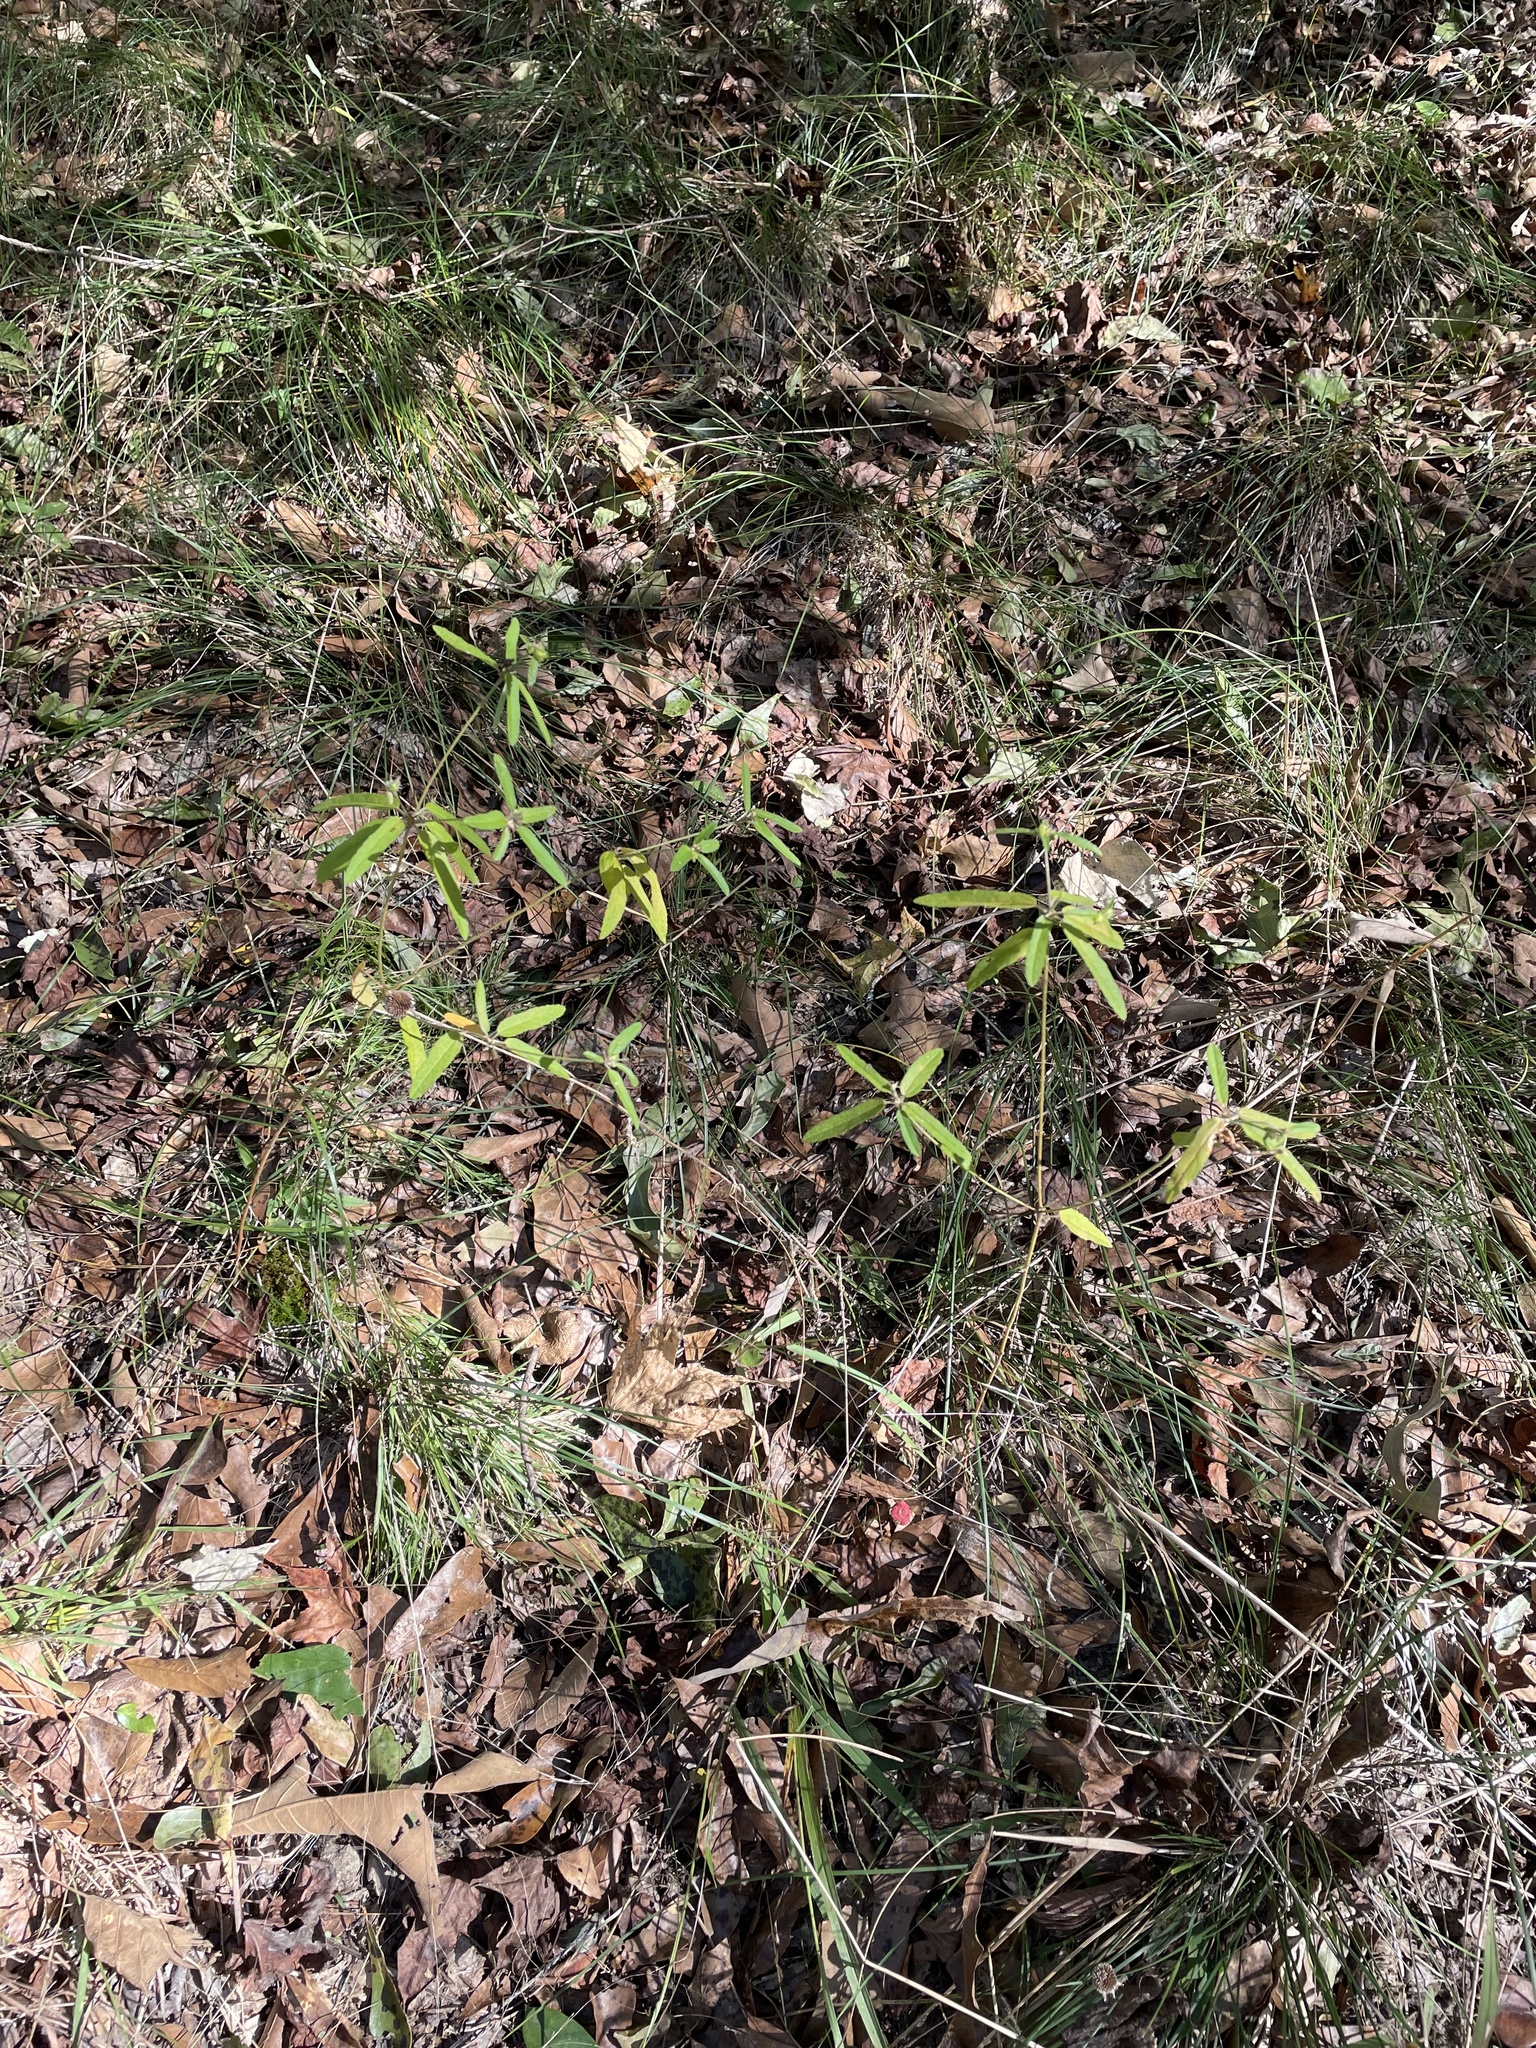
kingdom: Plantae
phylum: Tracheophyta
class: Magnoliopsida
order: Malpighiales
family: Euphorbiaceae
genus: Croton
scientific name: Croton glandulosus
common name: Tropic croton
